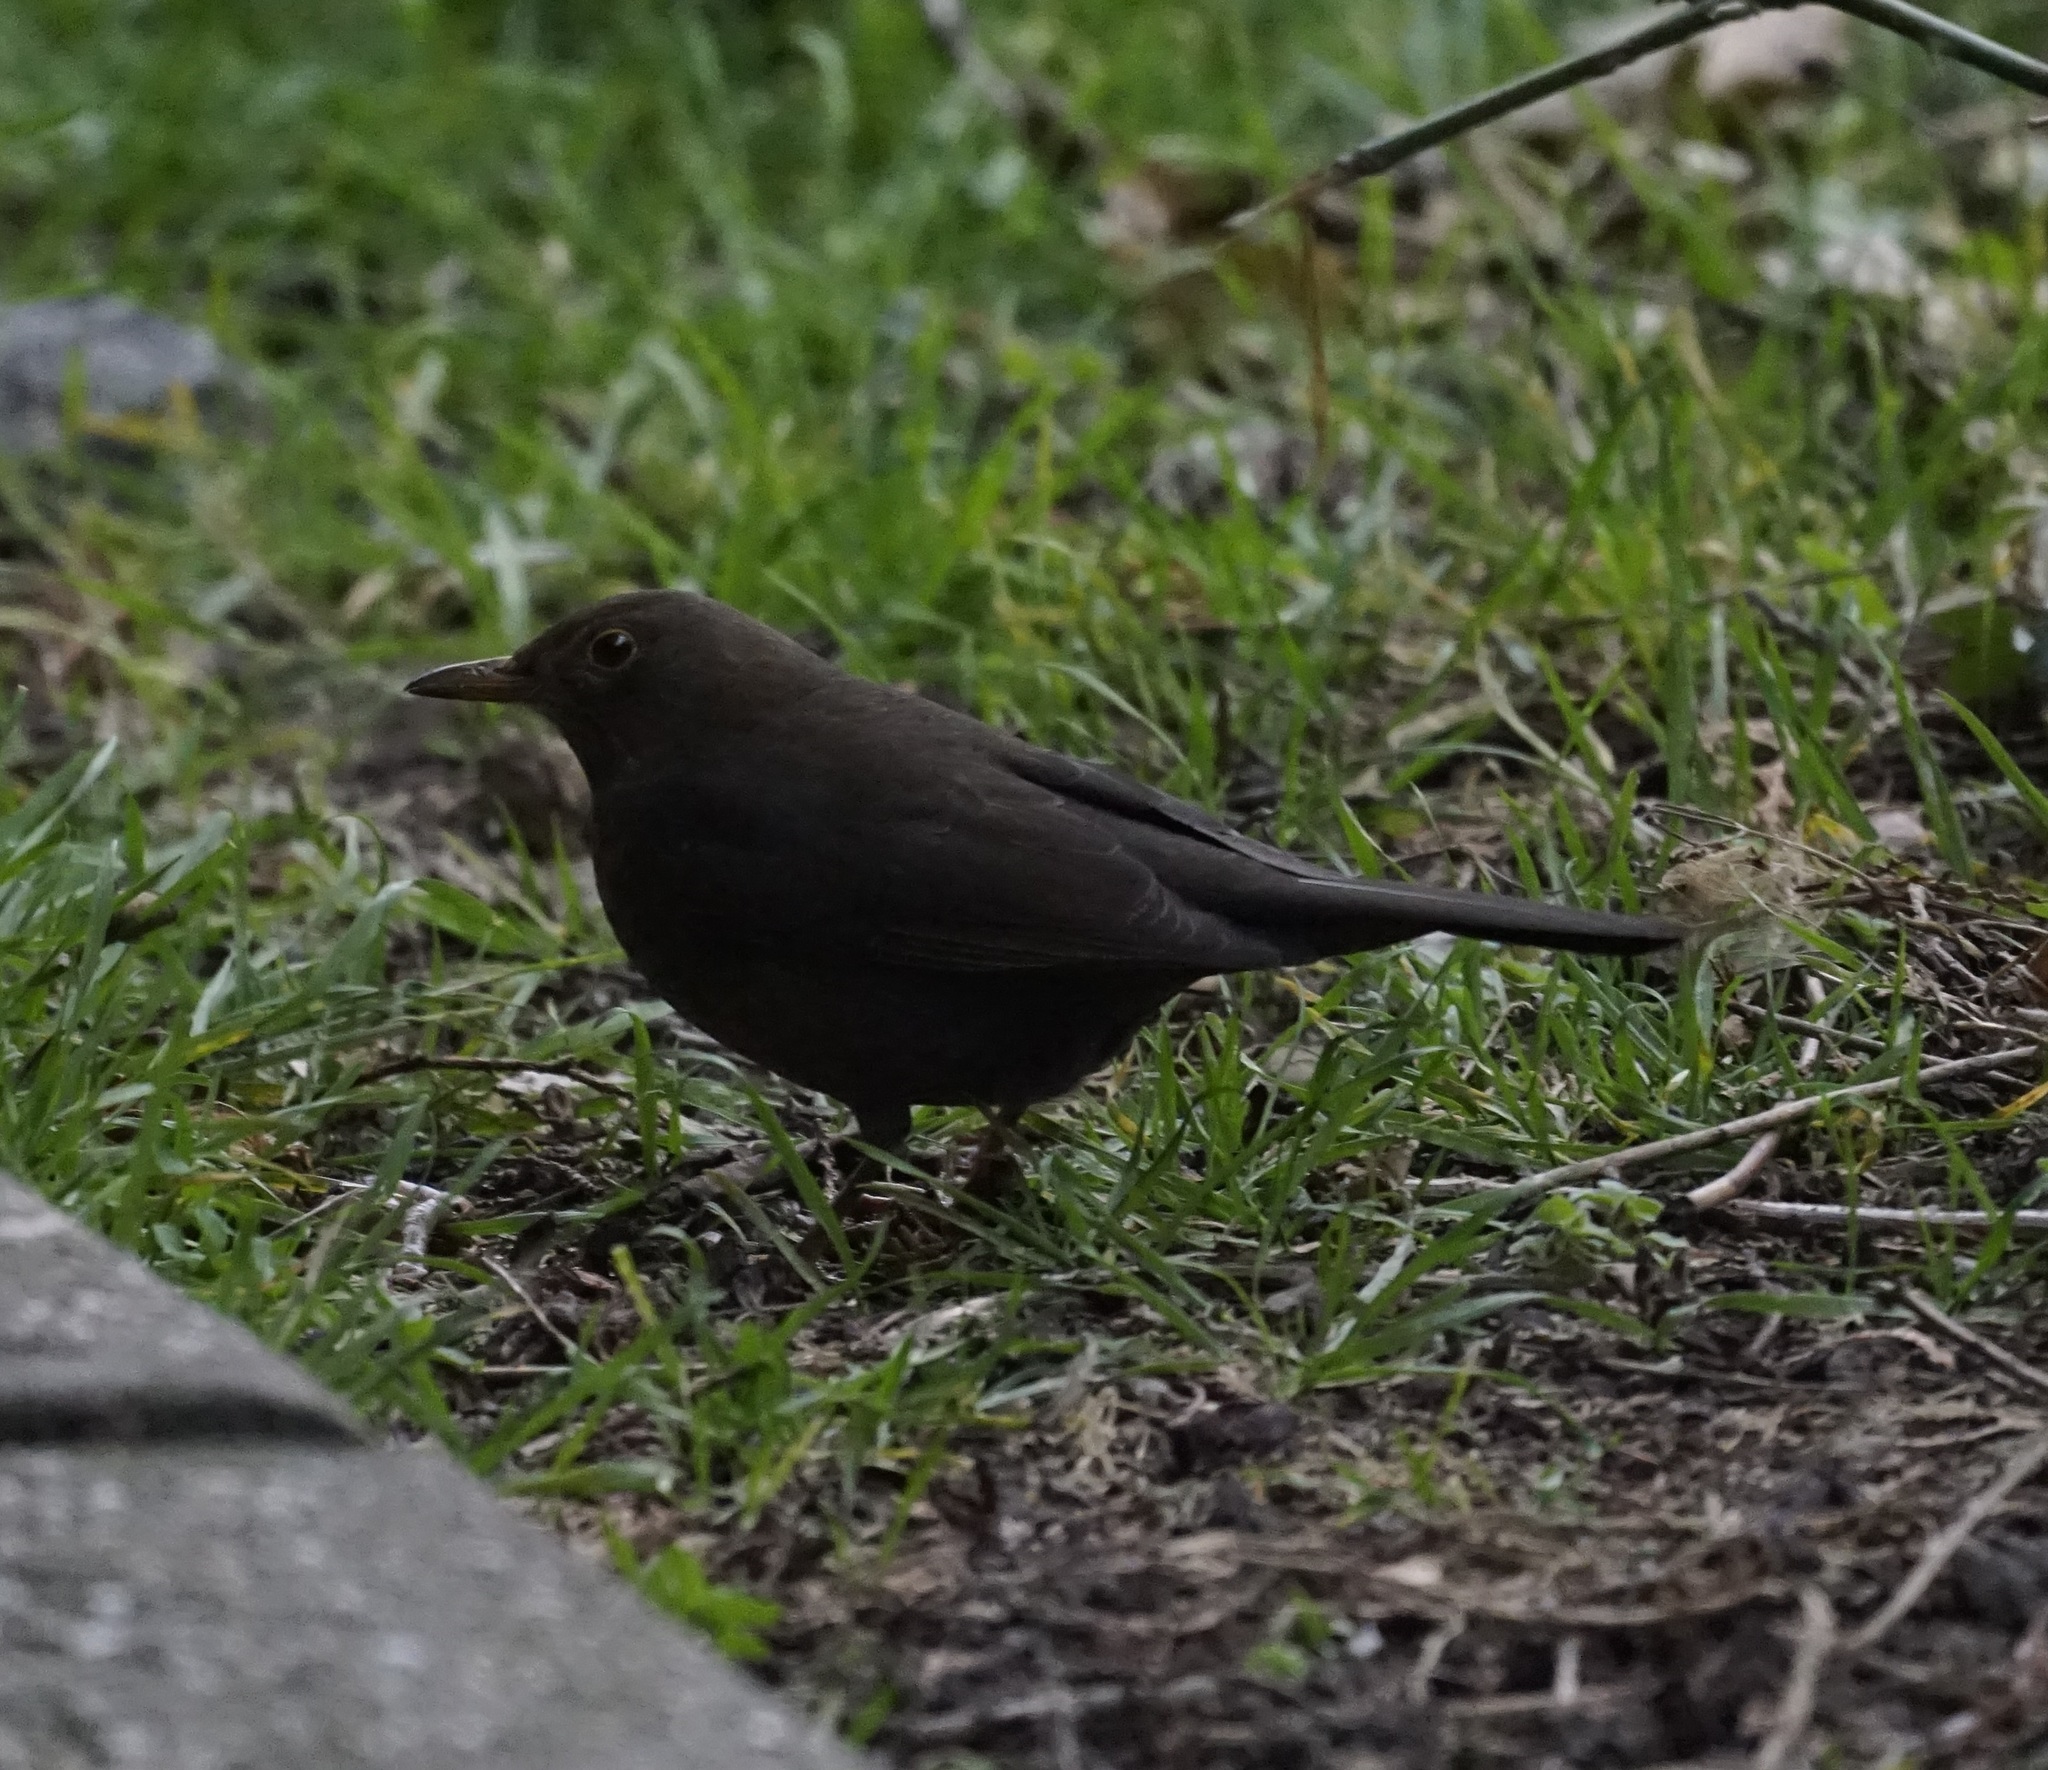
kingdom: Animalia
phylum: Chordata
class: Aves
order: Passeriformes
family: Turdidae
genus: Turdus
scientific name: Turdus merula
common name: Common blackbird
